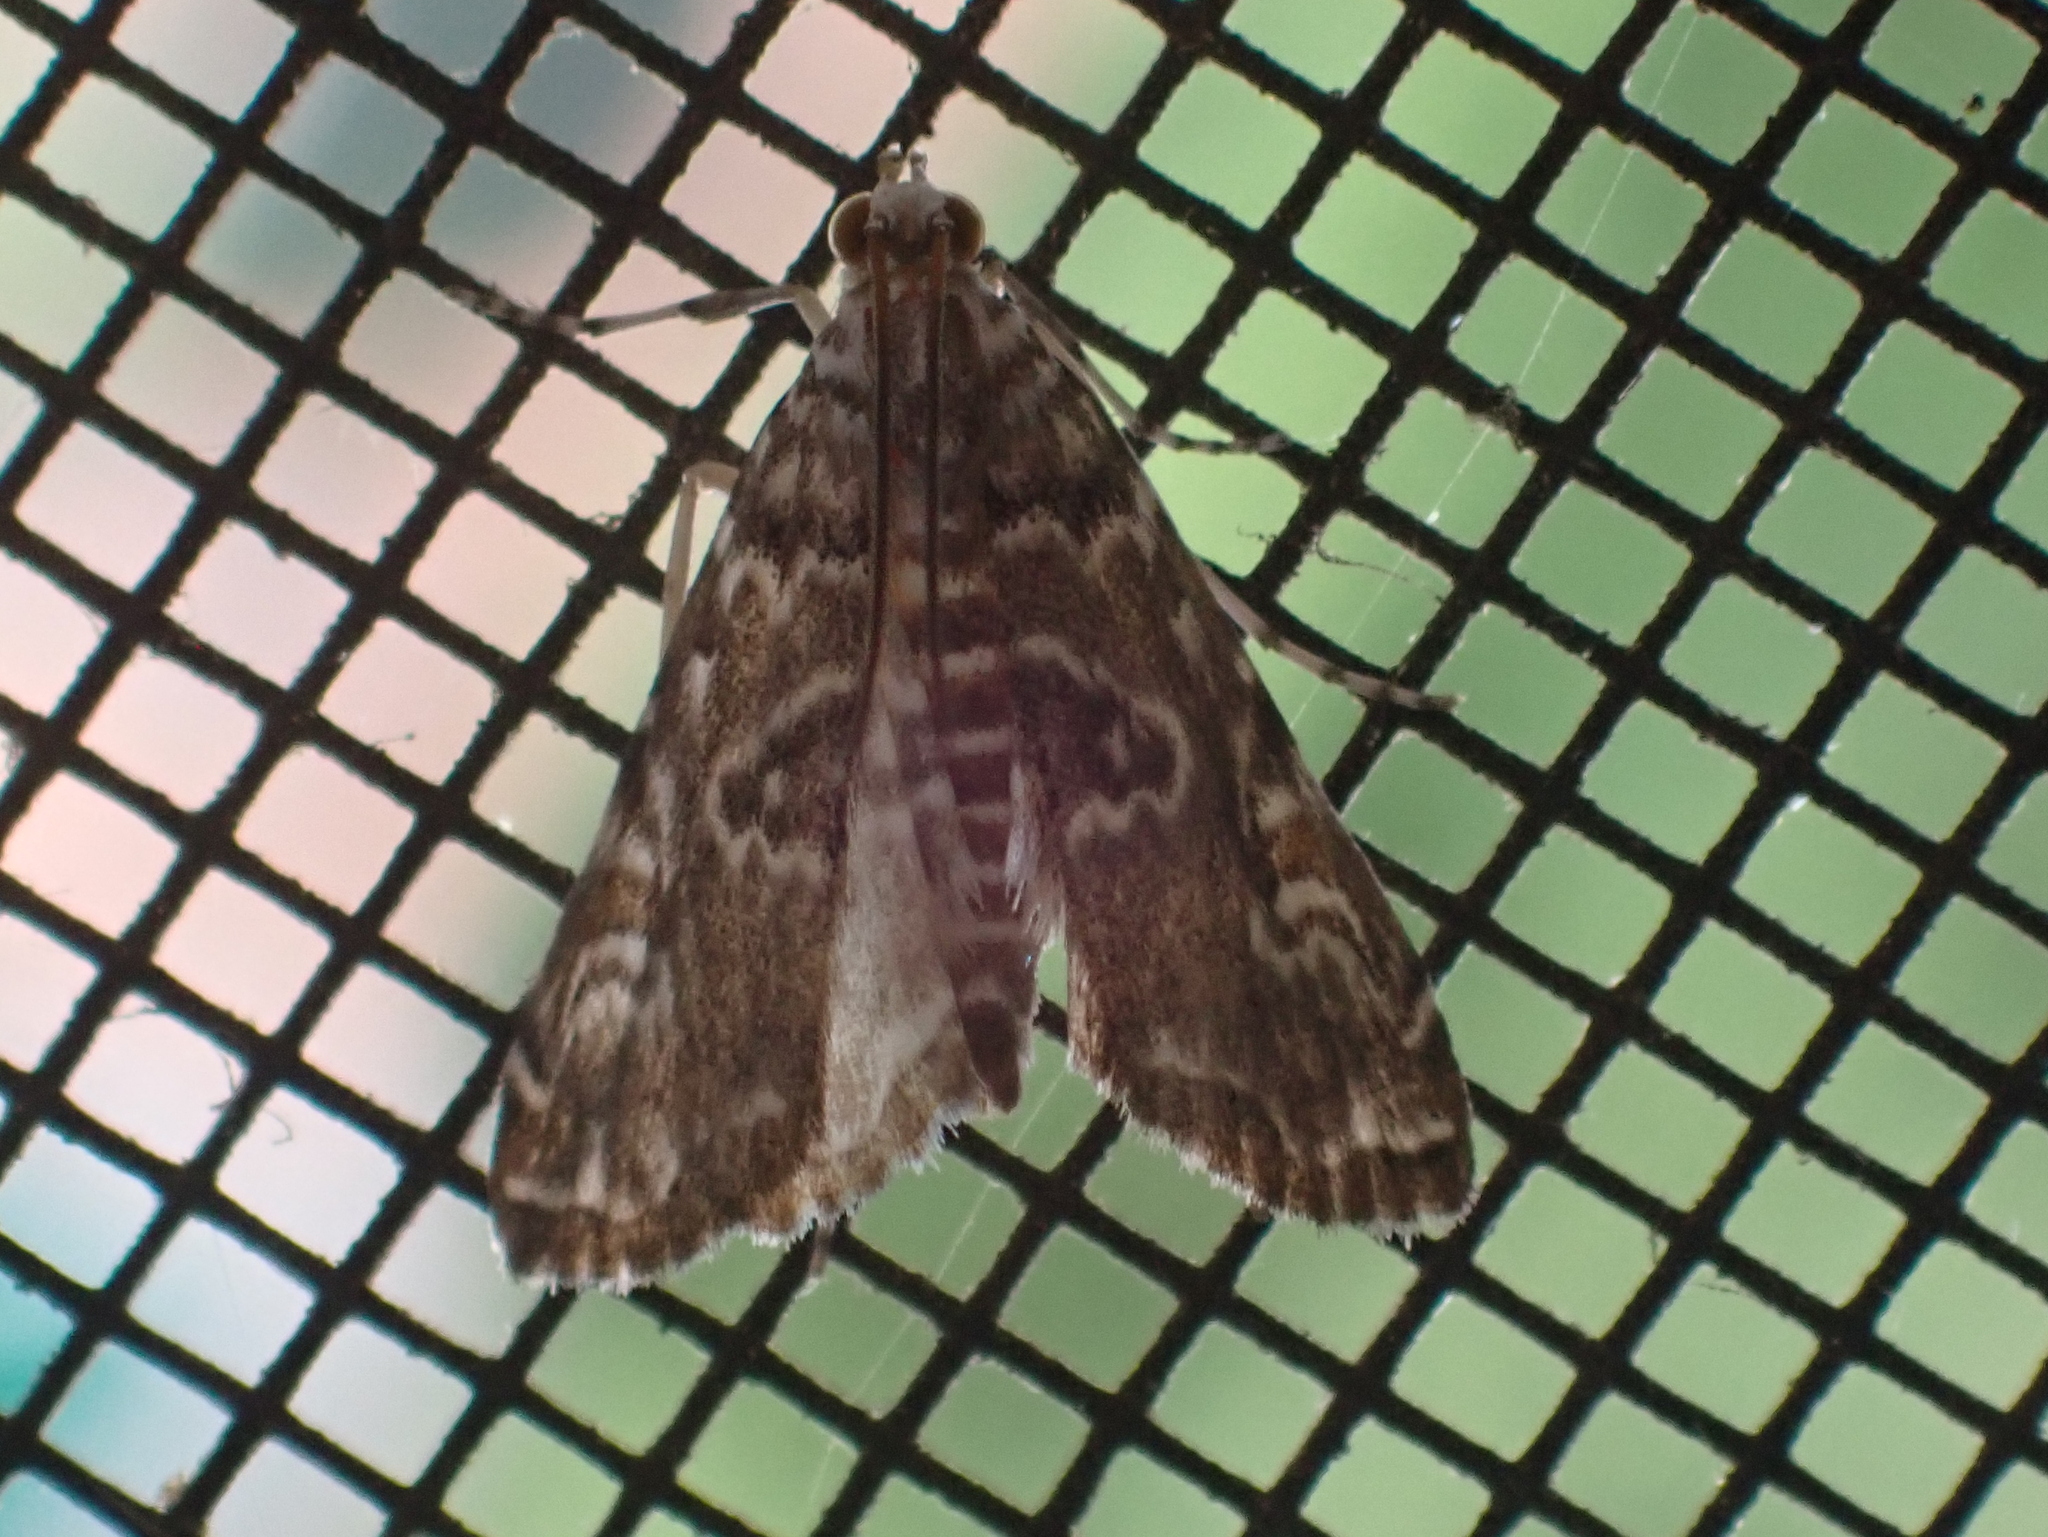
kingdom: Animalia
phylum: Arthropoda
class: Insecta
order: Lepidoptera
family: Crambidae
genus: Elophila
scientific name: Elophila gyralis
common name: Waterlily borer moth
